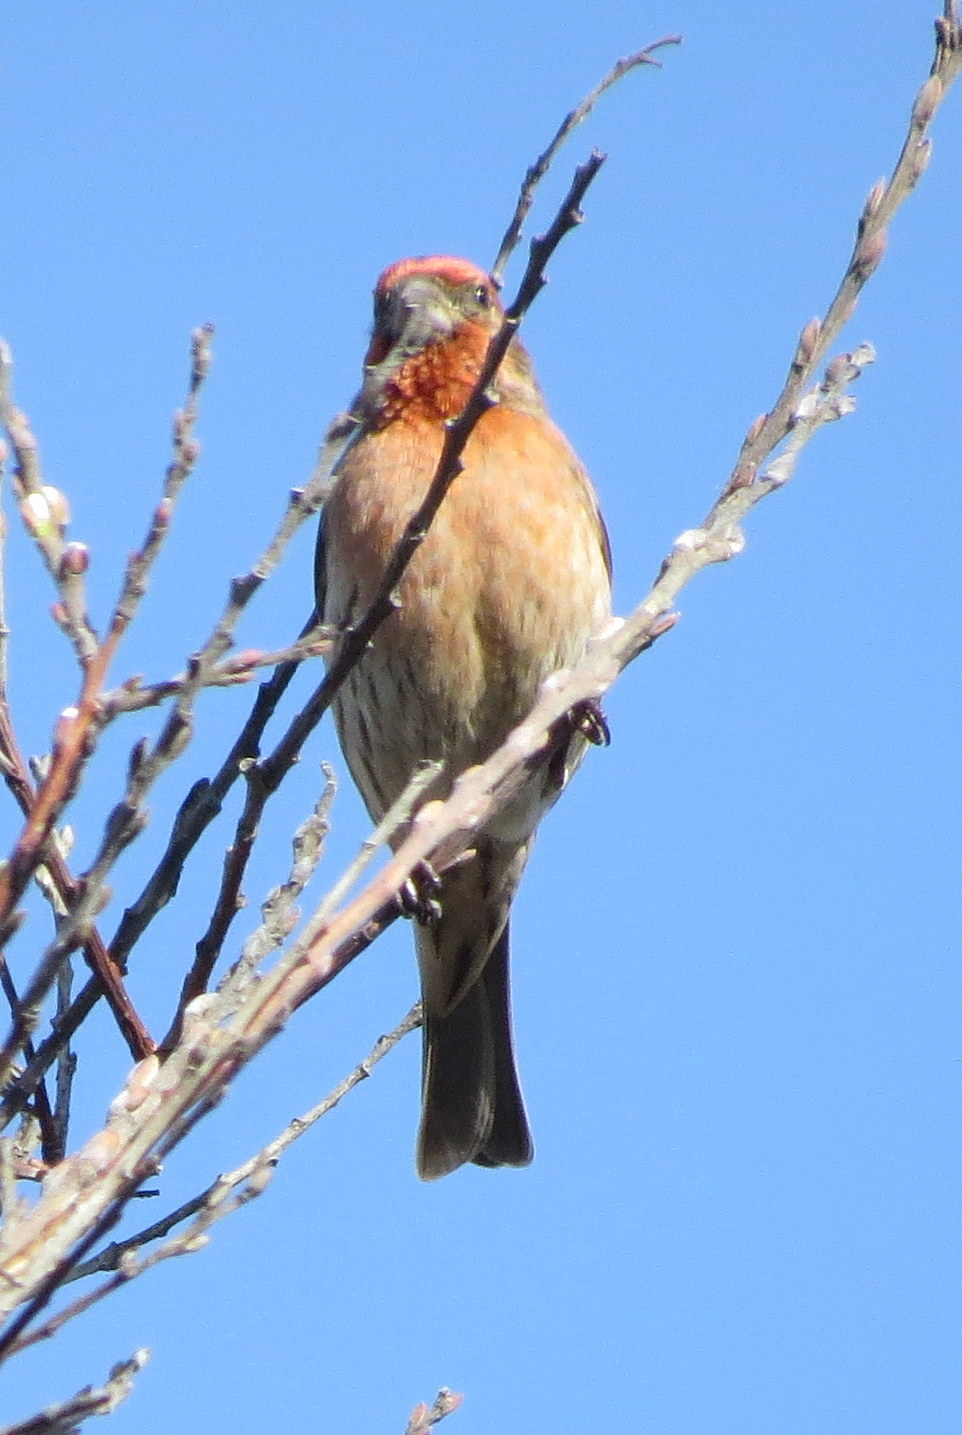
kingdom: Animalia
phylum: Chordata
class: Aves
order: Passeriformes
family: Fringillidae
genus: Haemorhous
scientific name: Haemorhous mexicanus
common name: House finch
